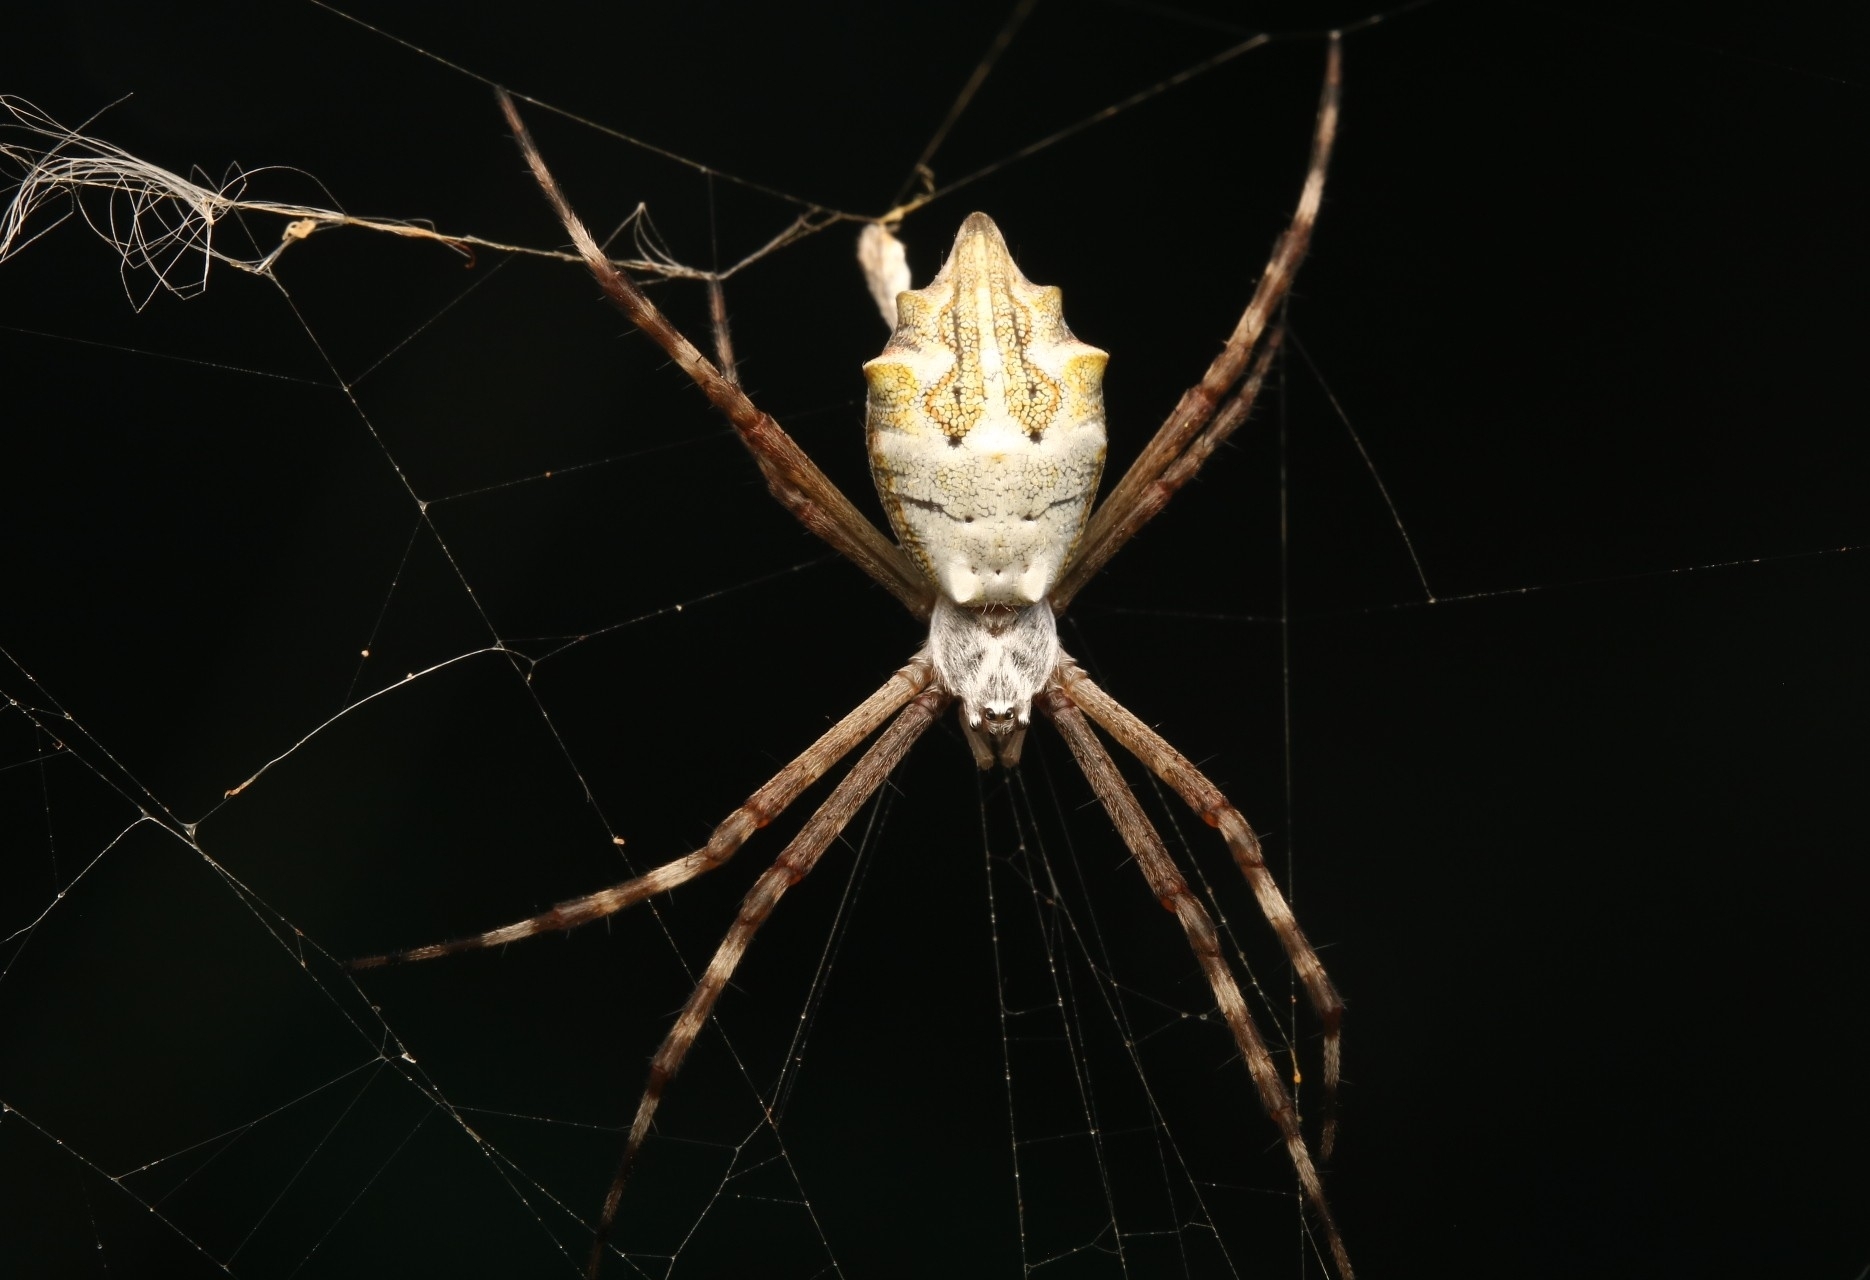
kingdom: Animalia
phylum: Arthropoda
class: Arachnida
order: Araneae
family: Araneidae
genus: Argiope
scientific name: Argiope argentata
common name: Orb weavers
